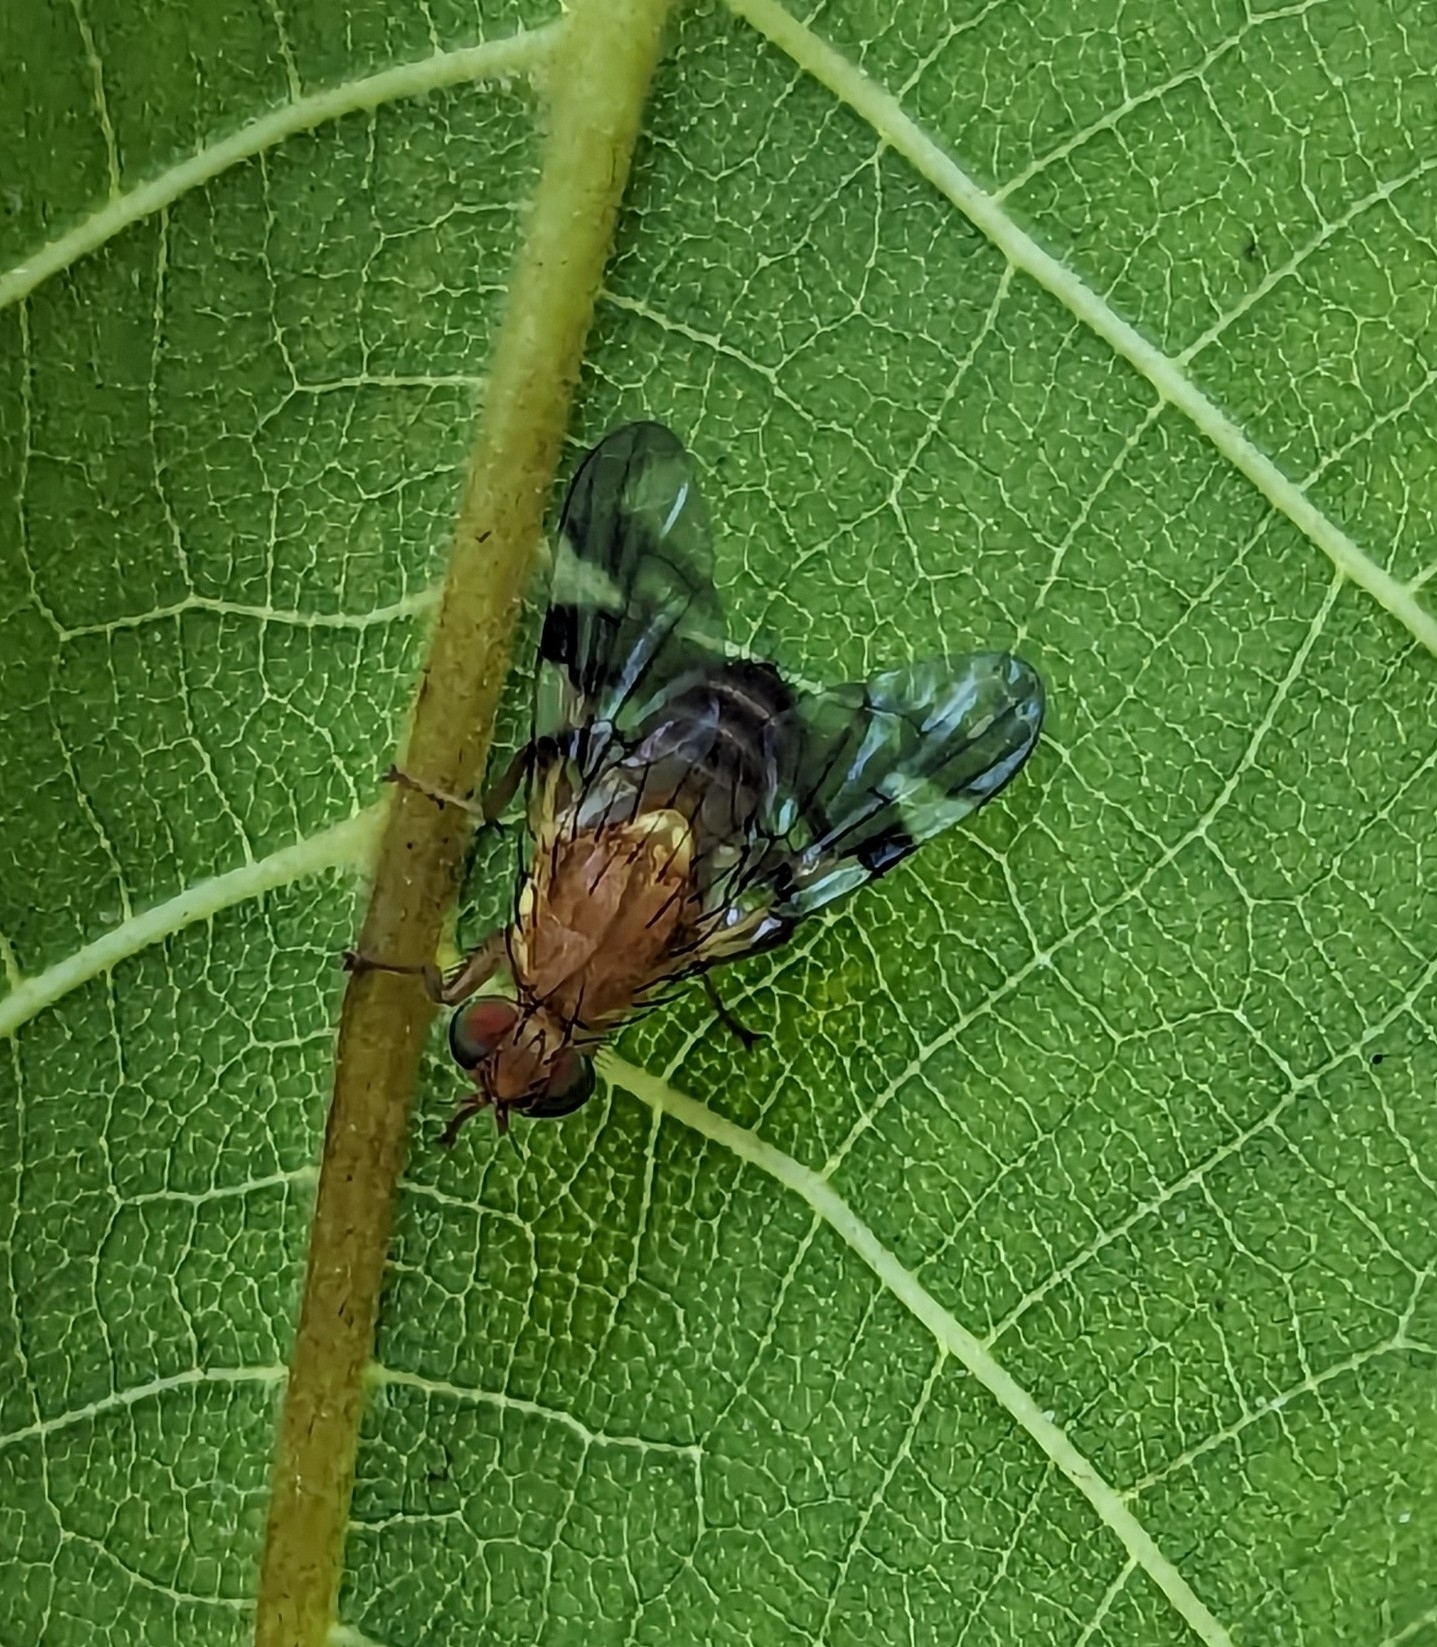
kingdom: Animalia
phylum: Arthropoda
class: Insecta
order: Diptera
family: Tephritidae
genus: Rhagoletis
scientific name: Rhagoletis suavis
